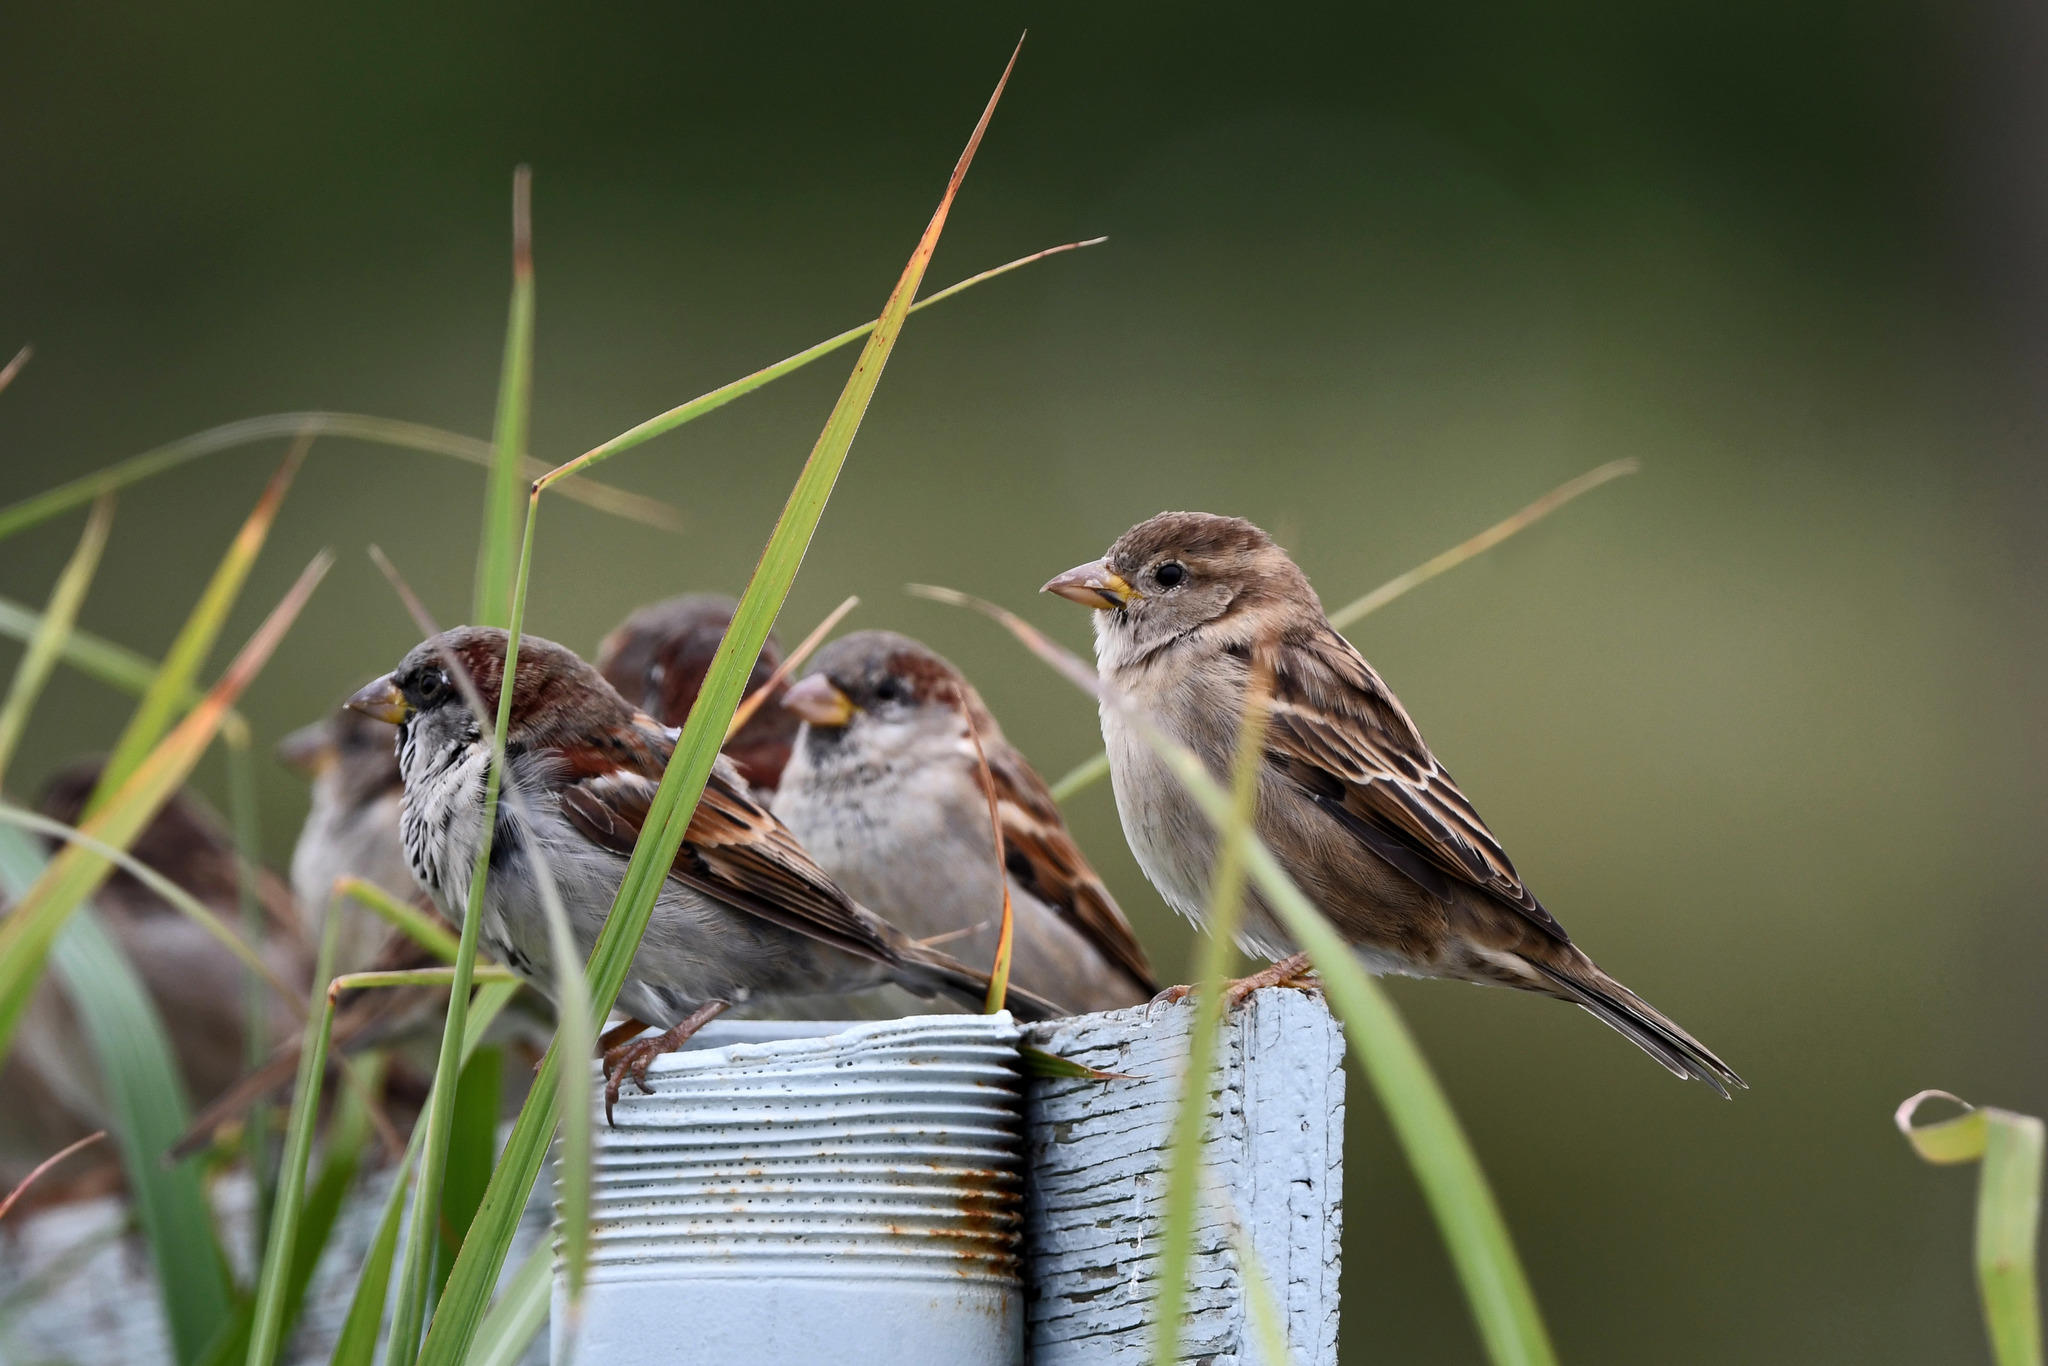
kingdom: Animalia
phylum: Chordata
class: Aves
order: Passeriformes
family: Passeridae
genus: Passer
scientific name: Passer domesticus
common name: House sparrow
